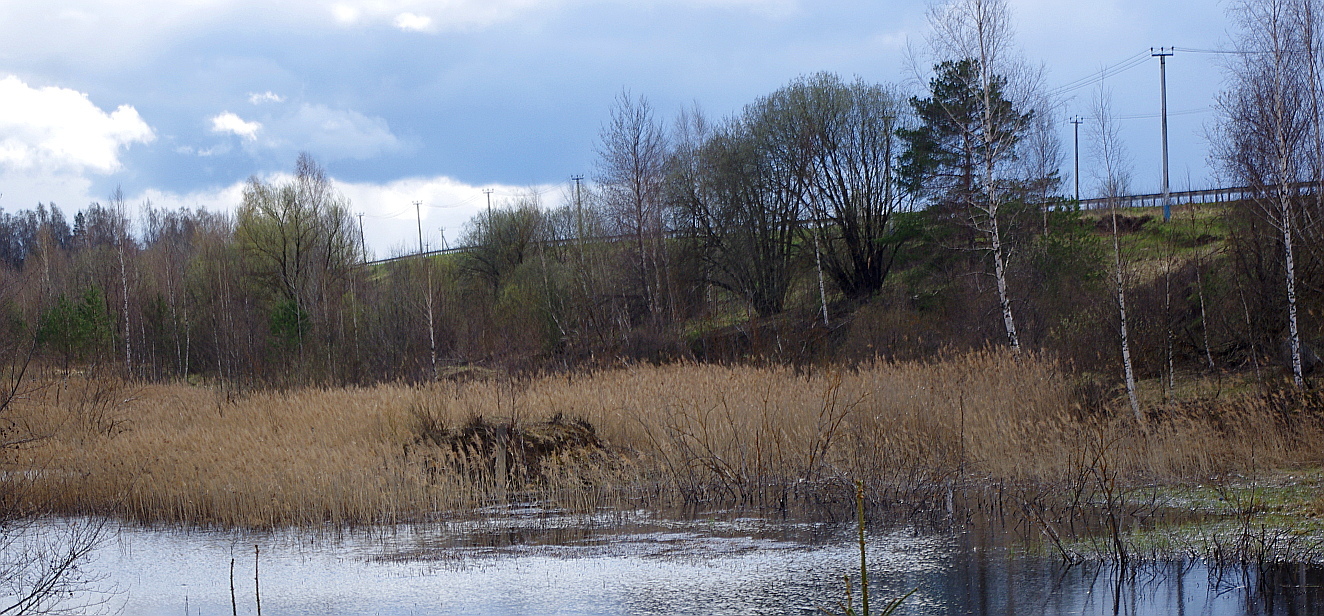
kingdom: Plantae
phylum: Tracheophyta
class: Liliopsida
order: Poales
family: Poaceae
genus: Phragmites
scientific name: Phragmites australis
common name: Common reed
